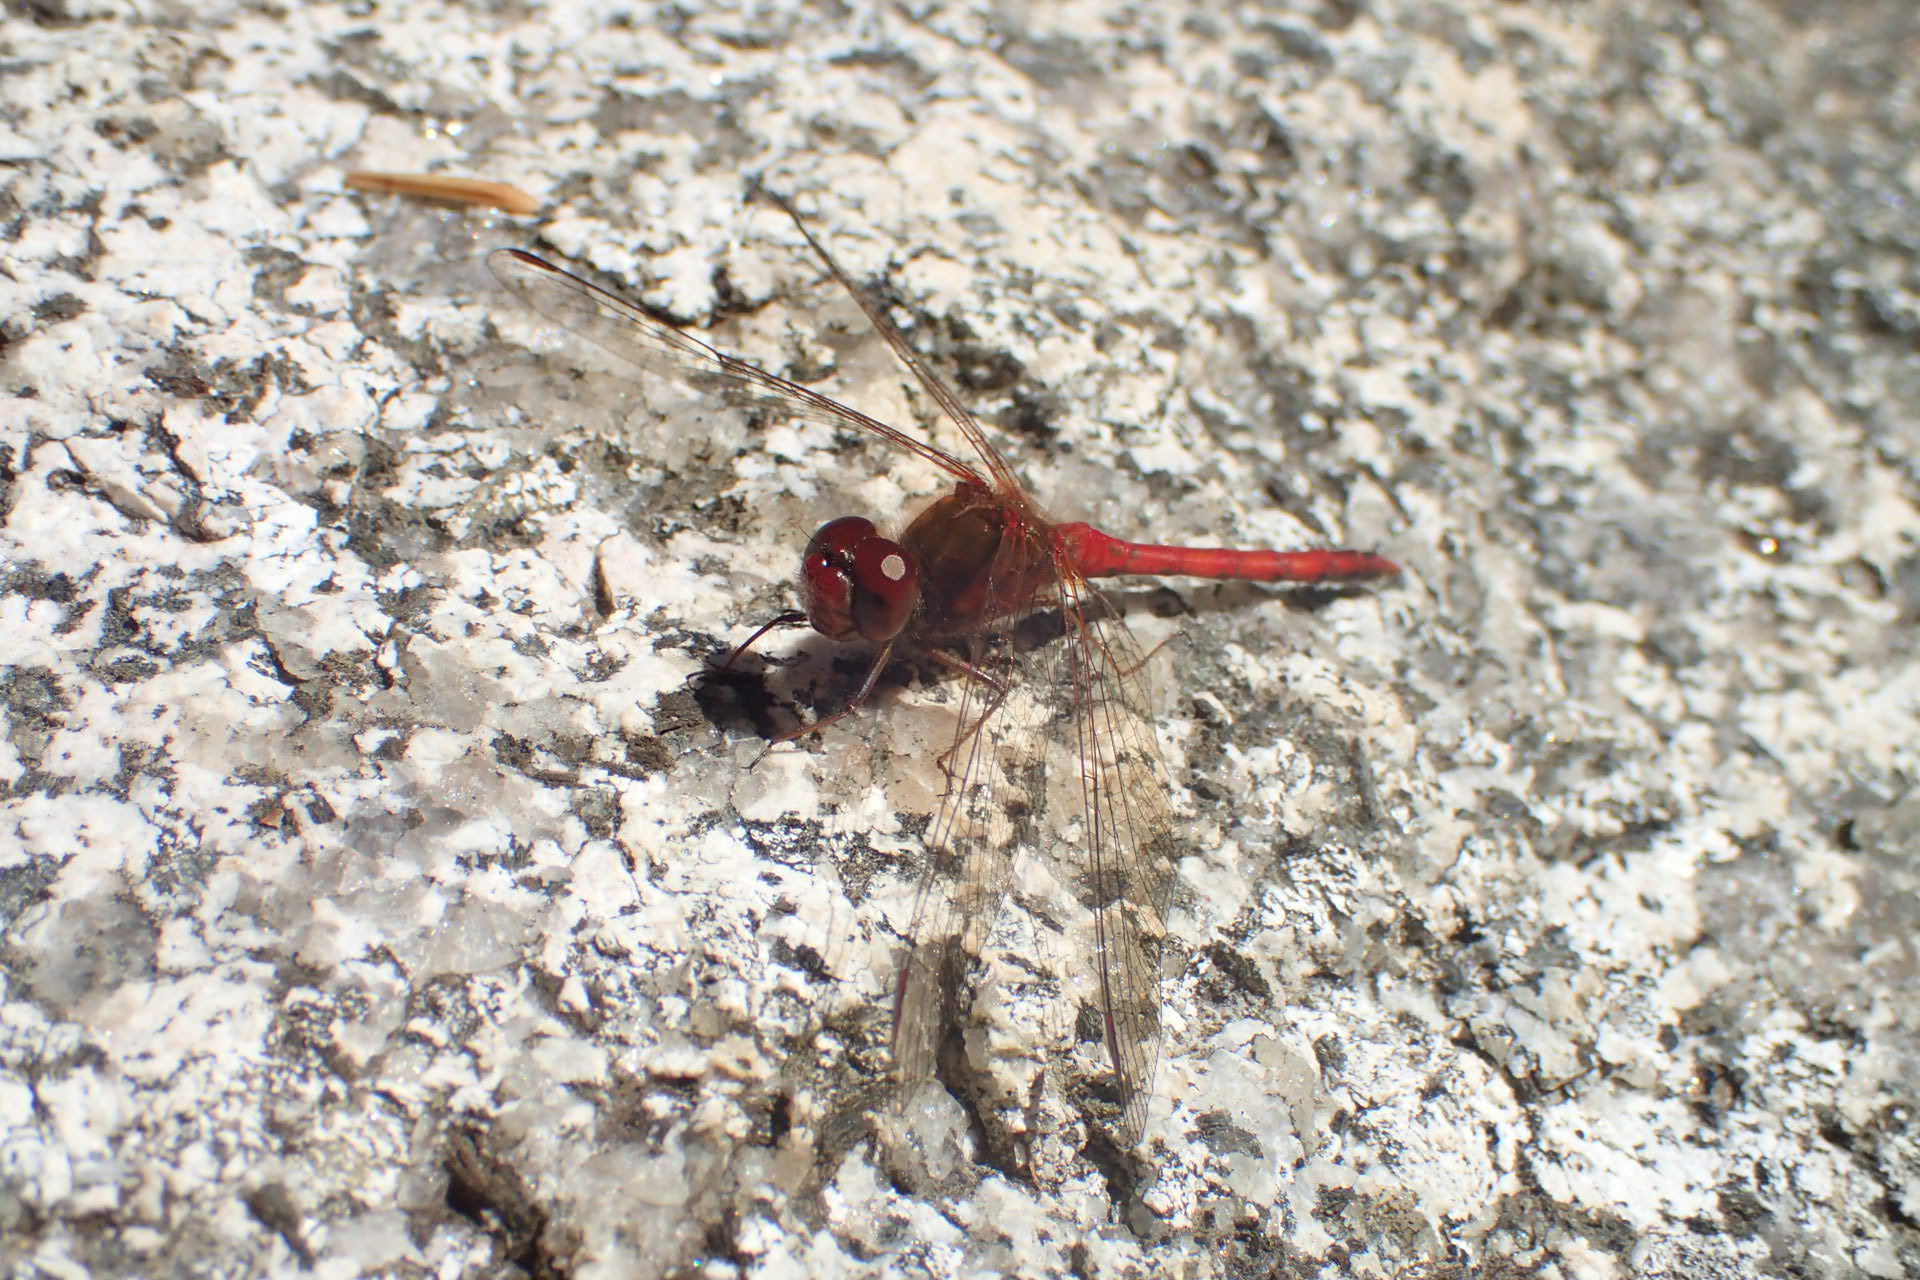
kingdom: Animalia
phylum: Arthropoda
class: Insecta
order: Odonata
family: Libellulidae
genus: Sympetrum
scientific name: Sympetrum vicinum
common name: Autumn meadowhawk
